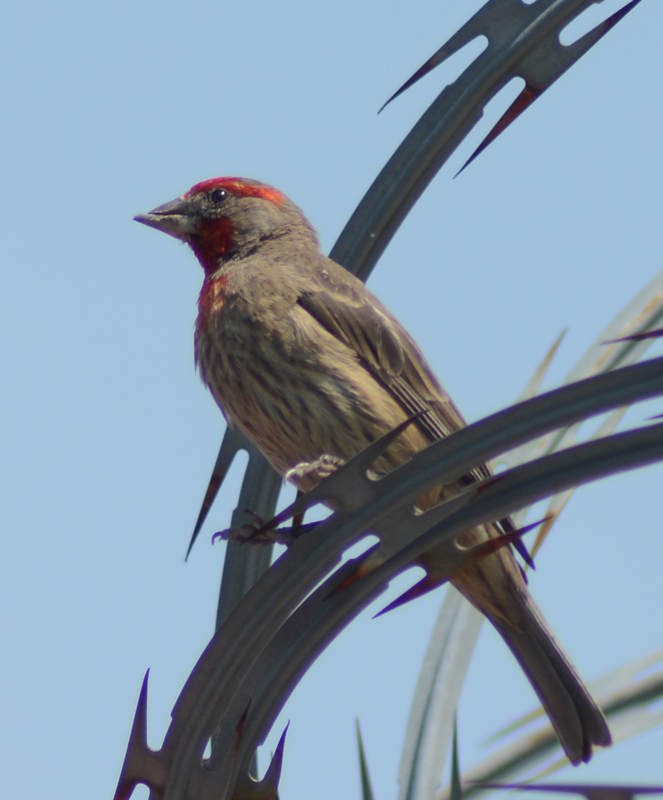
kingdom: Animalia
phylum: Chordata
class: Aves
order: Passeriformes
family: Fringillidae
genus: Haemorhous
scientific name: Haemorhous mexicanus
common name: House finch
